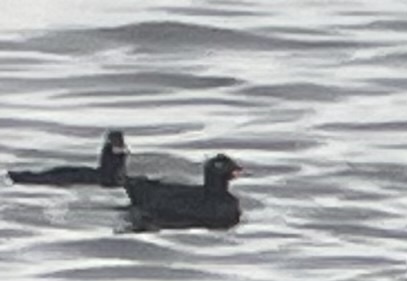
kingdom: Animalia
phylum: Chordata
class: Aves
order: Anseriformes
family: Anatidae
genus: Melanitta
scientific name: Melanitta fusca
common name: Velvet scoter
